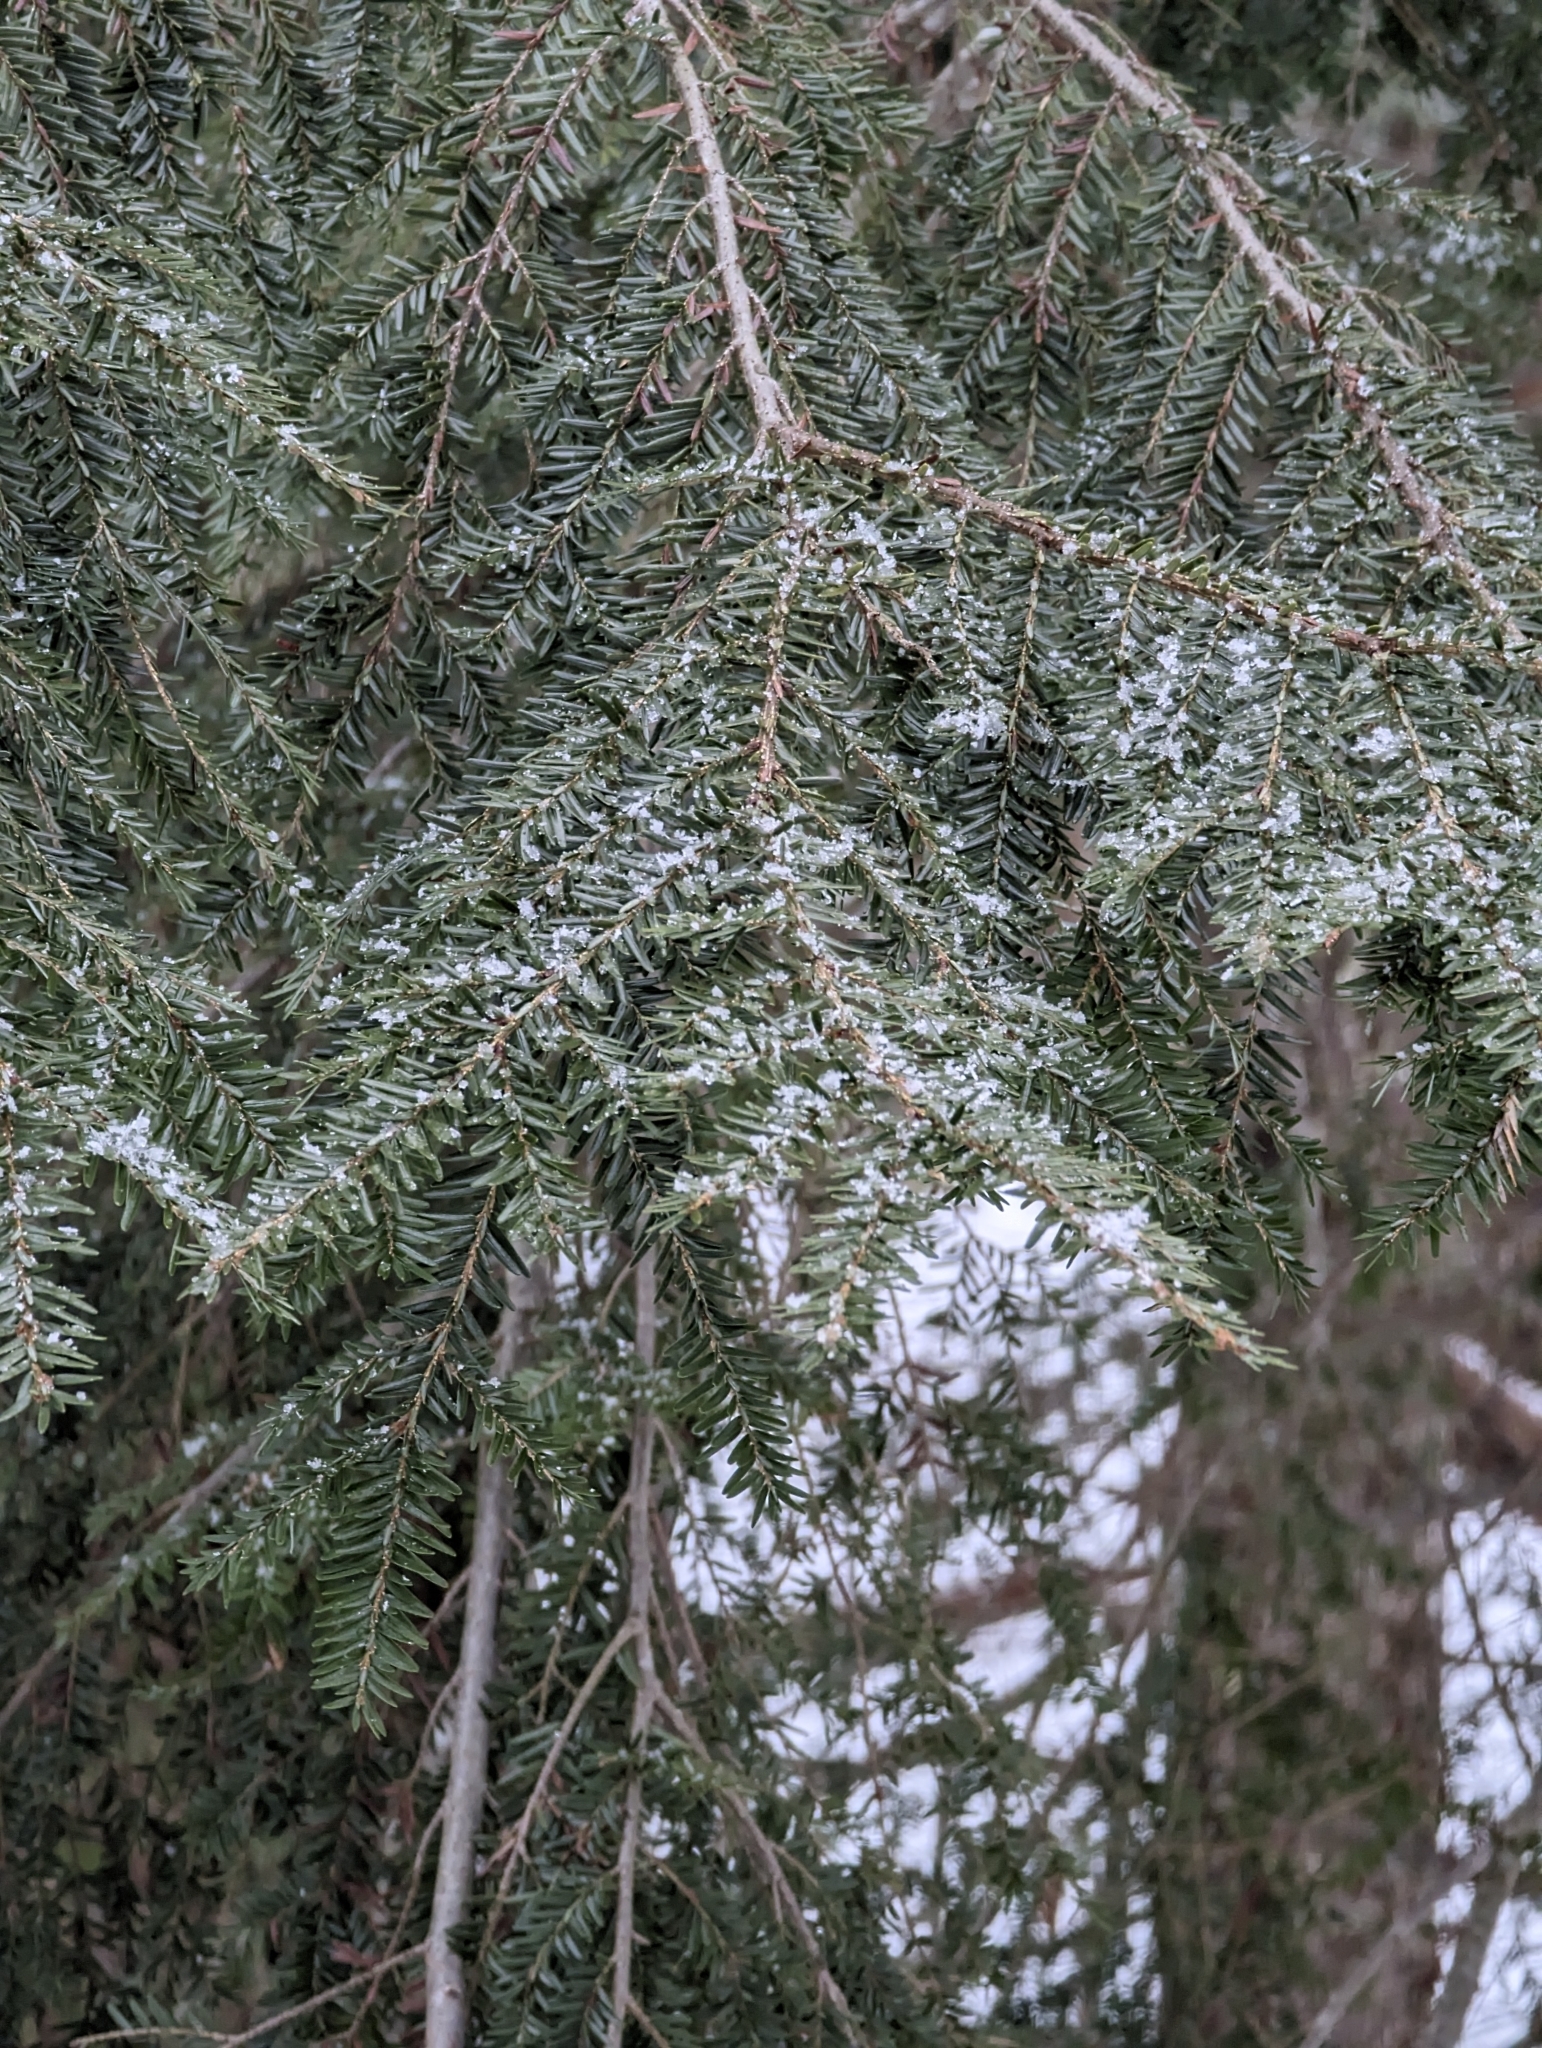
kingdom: Plantae
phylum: Tracheophyta
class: Pinopsida
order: Pinales
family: Pinaceae
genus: Tsuga
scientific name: Tsuga canadensis
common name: Eastern hemlock
